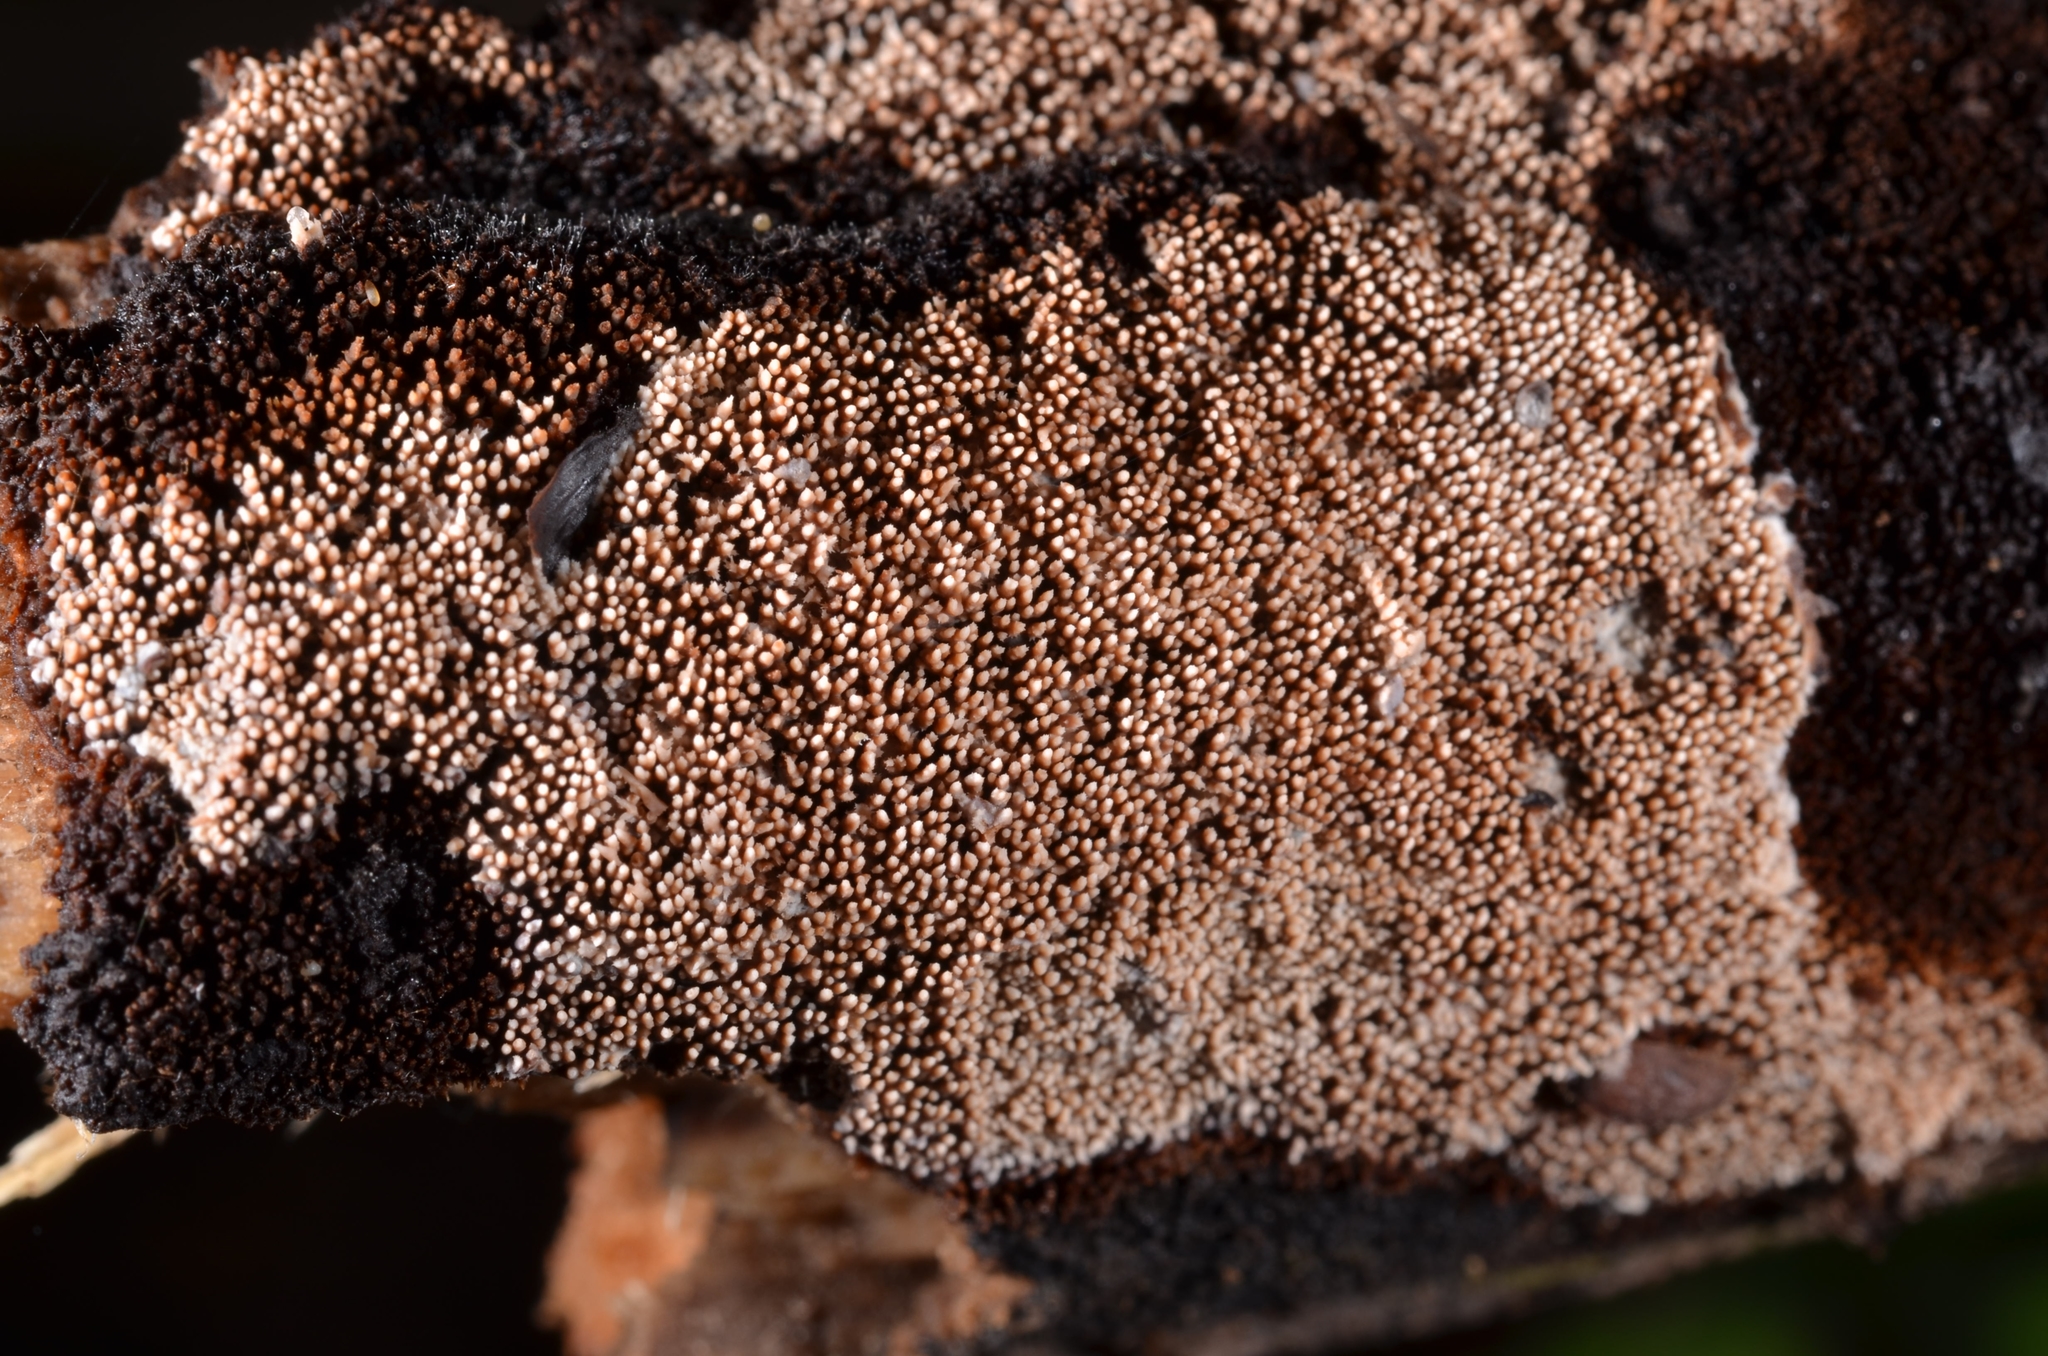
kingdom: Fungi
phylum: Basidiomycota
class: Agaricomycetes
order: Polyporales
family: Meruliaceae
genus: Mycoacia
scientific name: Mycoacia fuscoatra
